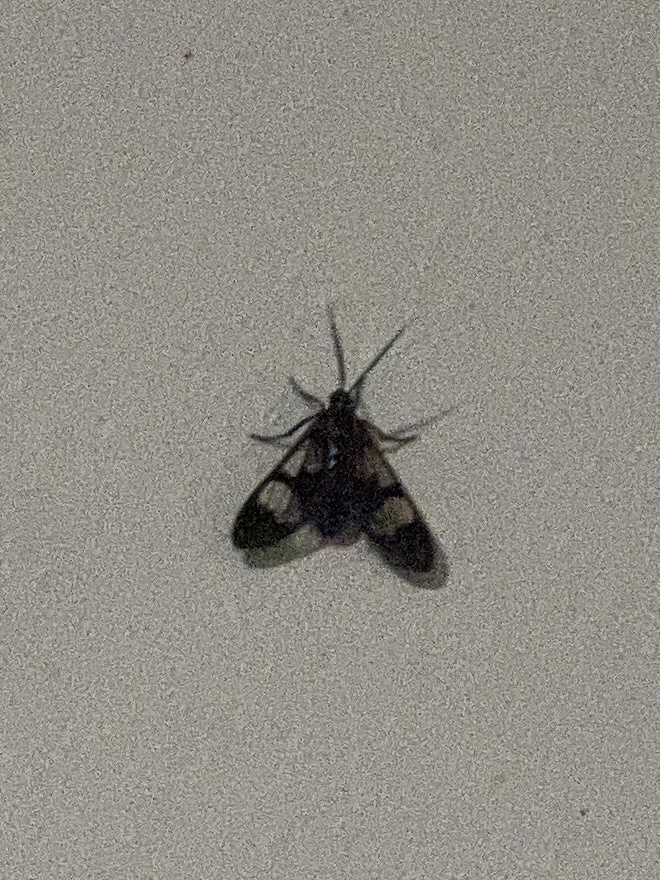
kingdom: Animalia
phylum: Arthropoda
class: Insecta
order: Lepidoptera
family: Erebidae
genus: Cosmosoma
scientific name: Cosmosoma festivum
